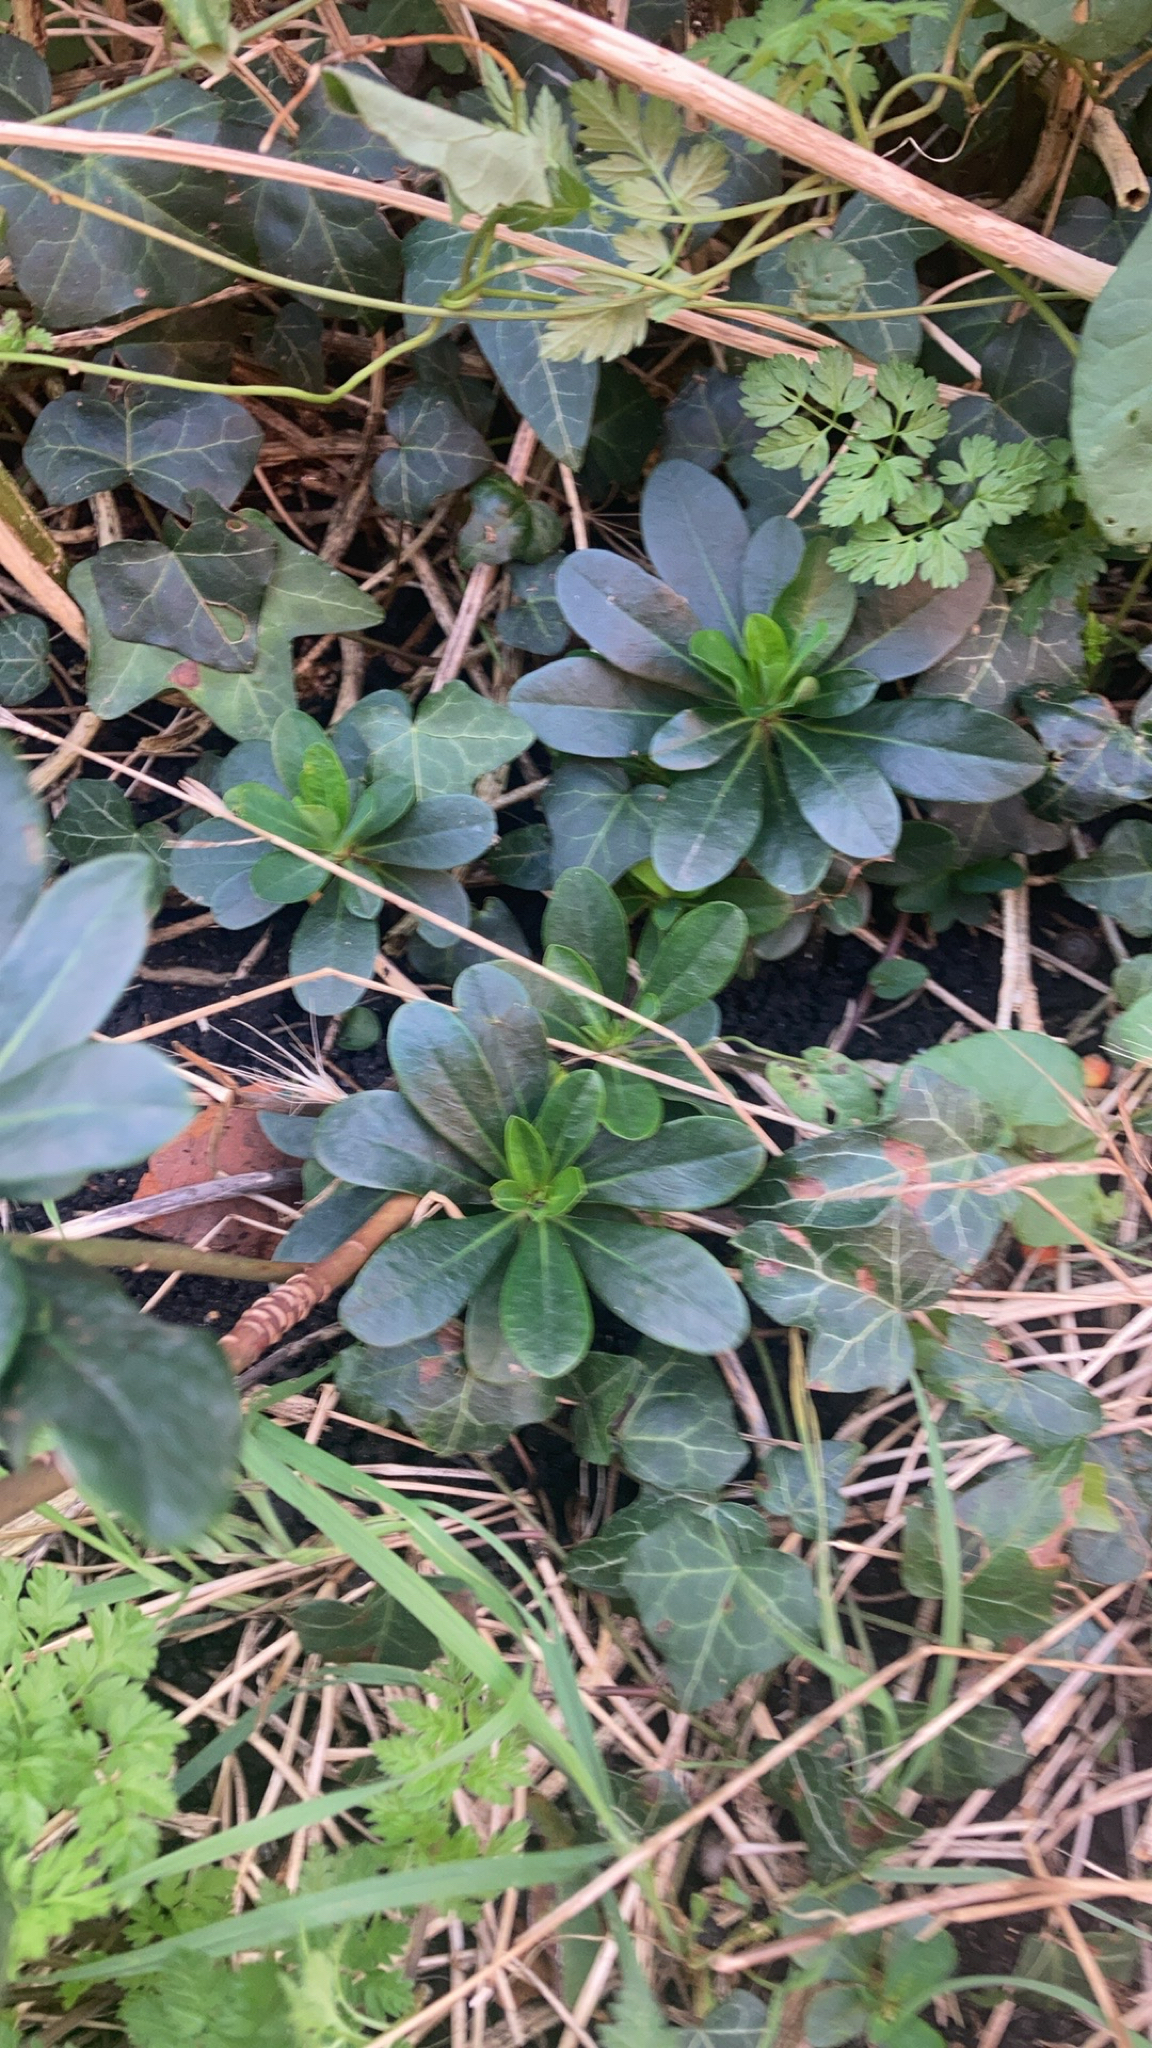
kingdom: Plantae
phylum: Tracheophyta
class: Magnoliopsida
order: Malpighiales
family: Euphorbiaceae
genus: Euphorbia
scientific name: Euphorbia amygdaloides
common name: Wood spurge
